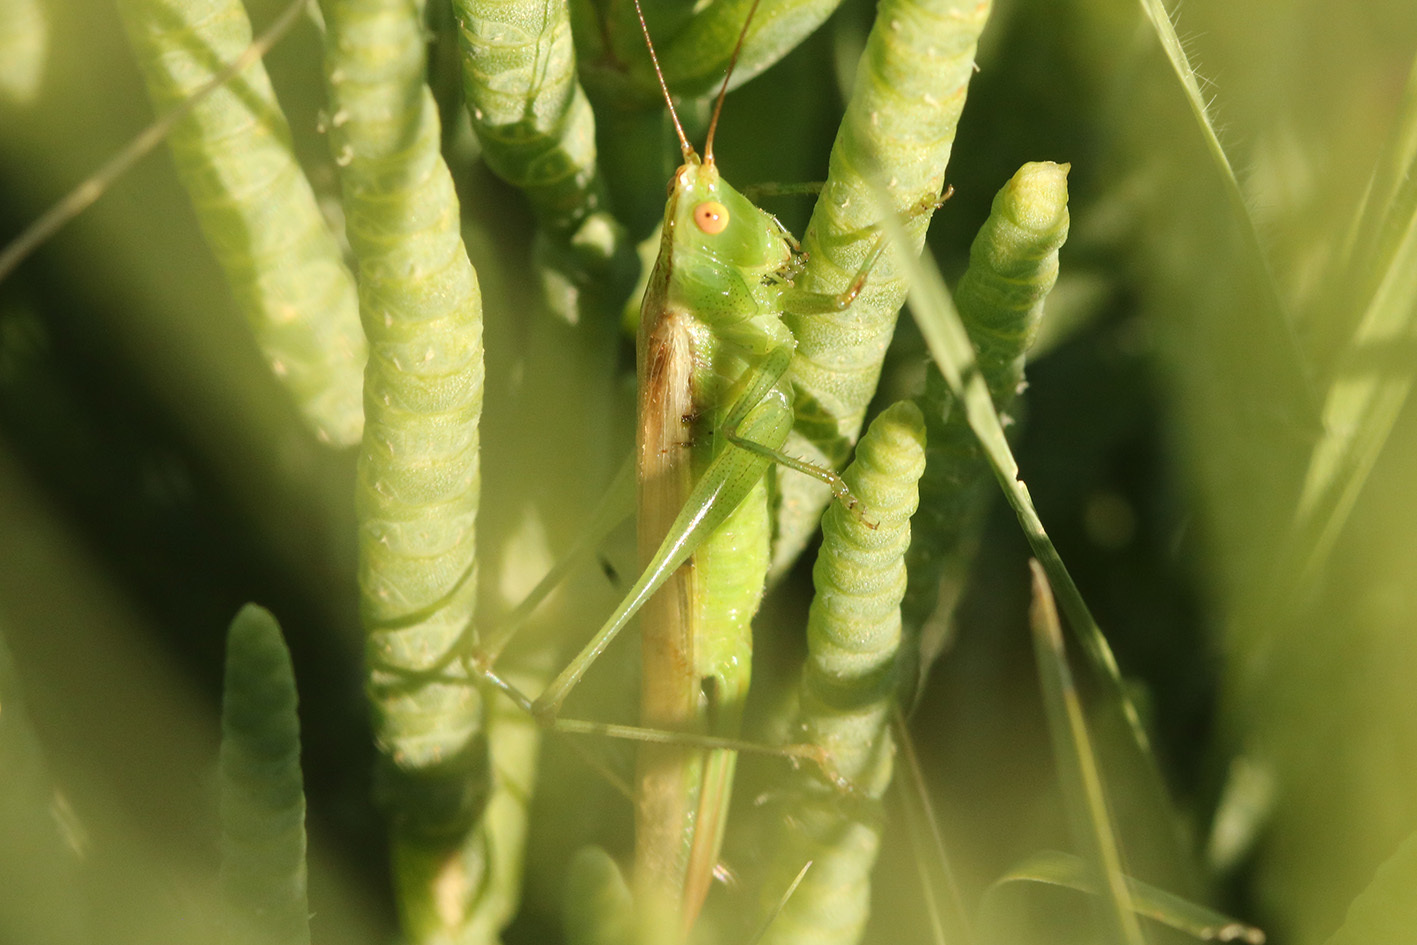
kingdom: Animalia
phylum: Arthropoda
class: Insecta
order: Orthoptera
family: Tettigoniidae
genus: Conocephalus
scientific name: Conocephalus longipes
